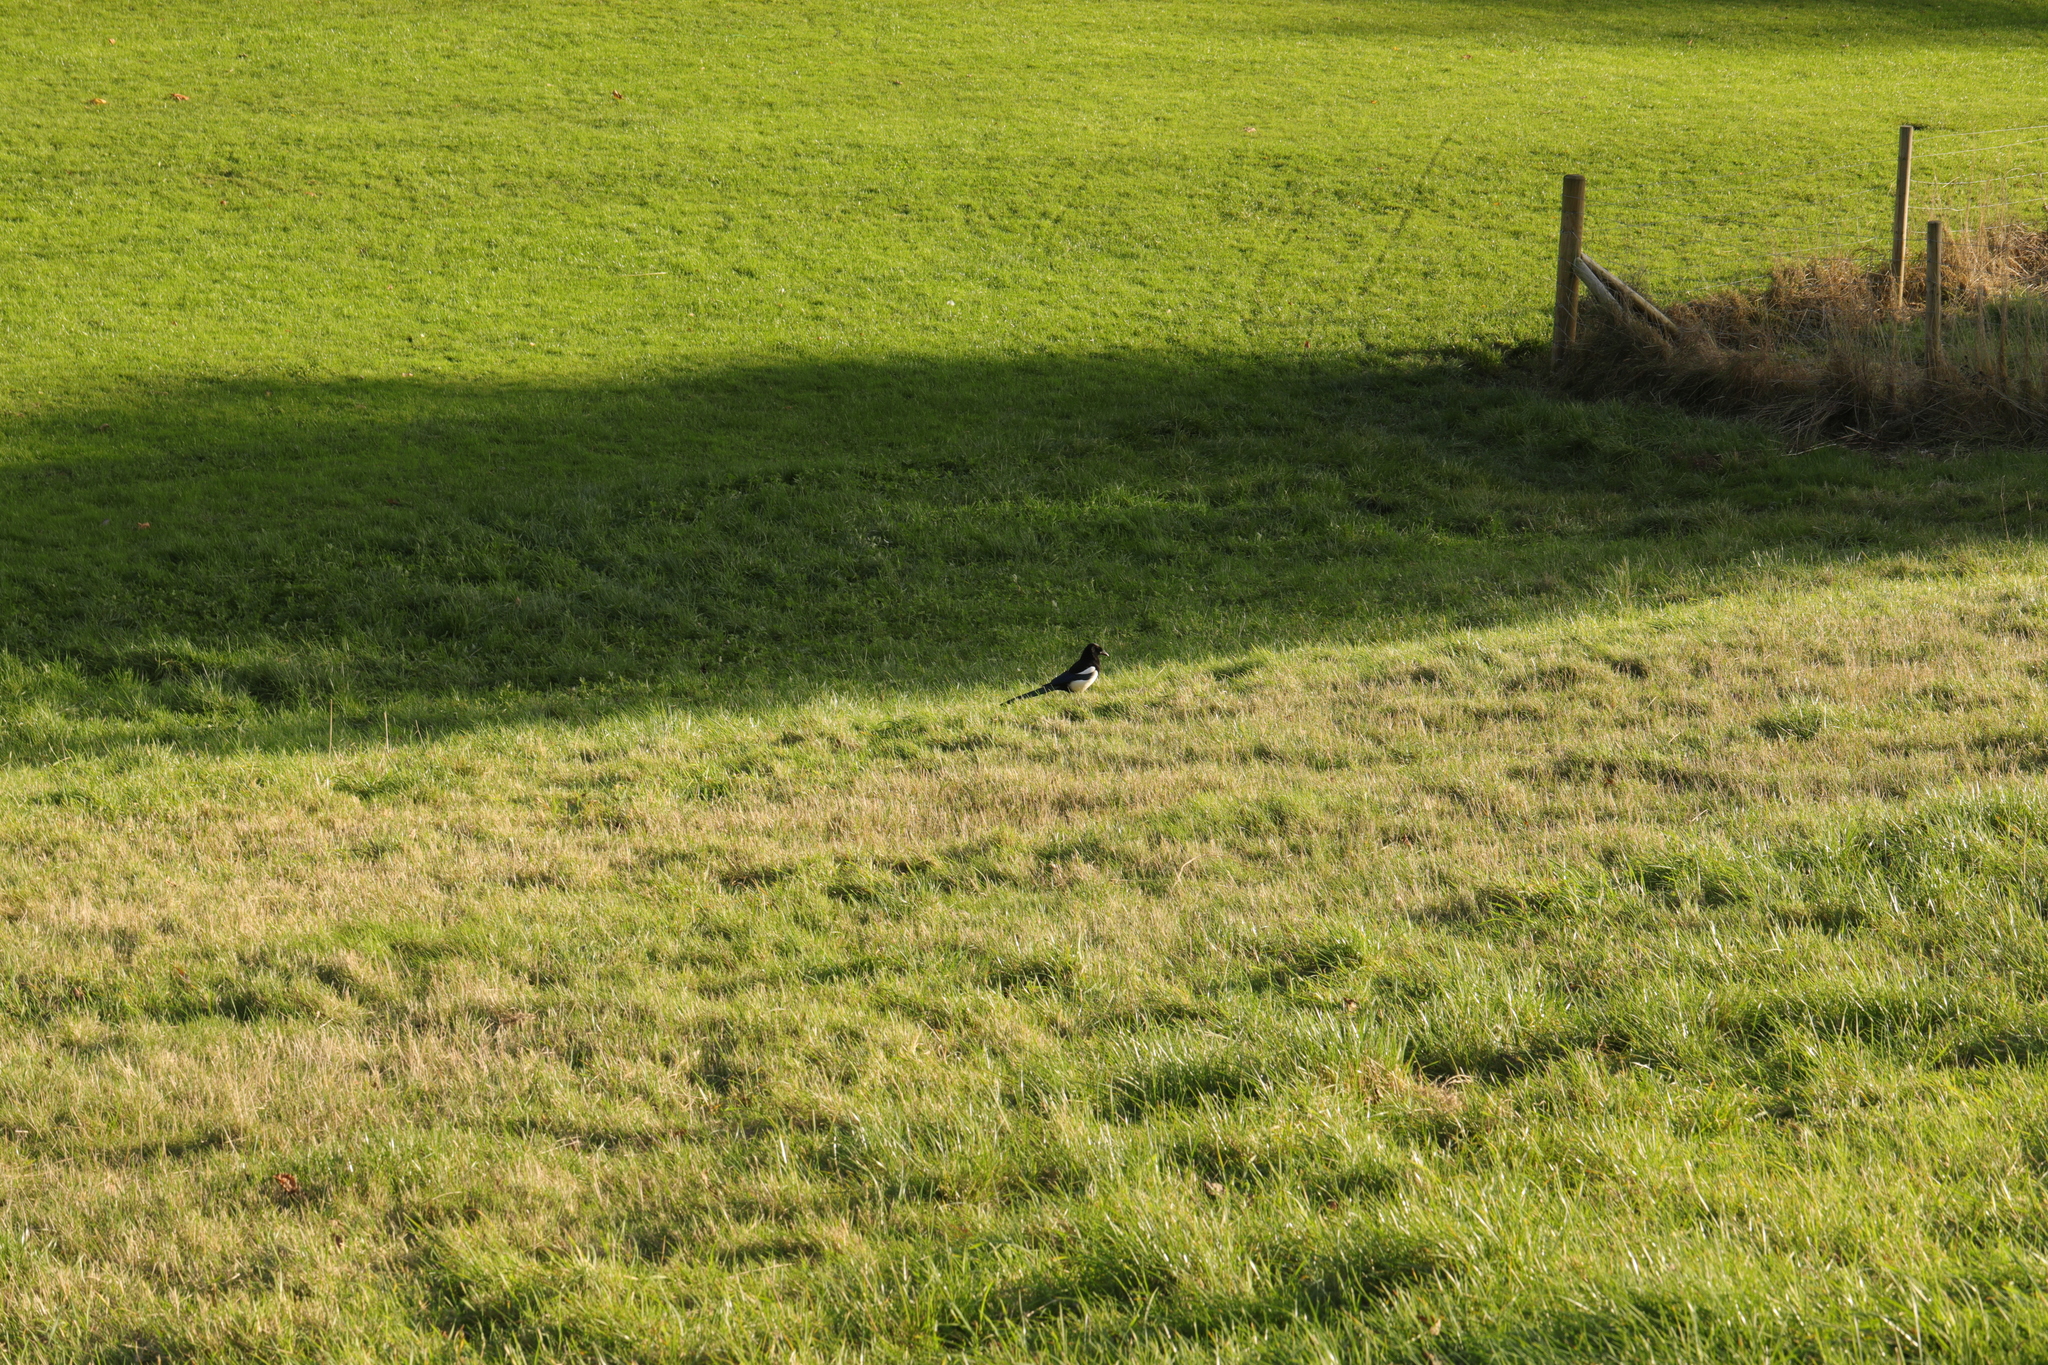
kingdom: Animalia
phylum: Chordata
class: Aves
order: Passeriformes
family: Corvidae
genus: Pica
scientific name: Pica pica
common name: Eurasian magpie
